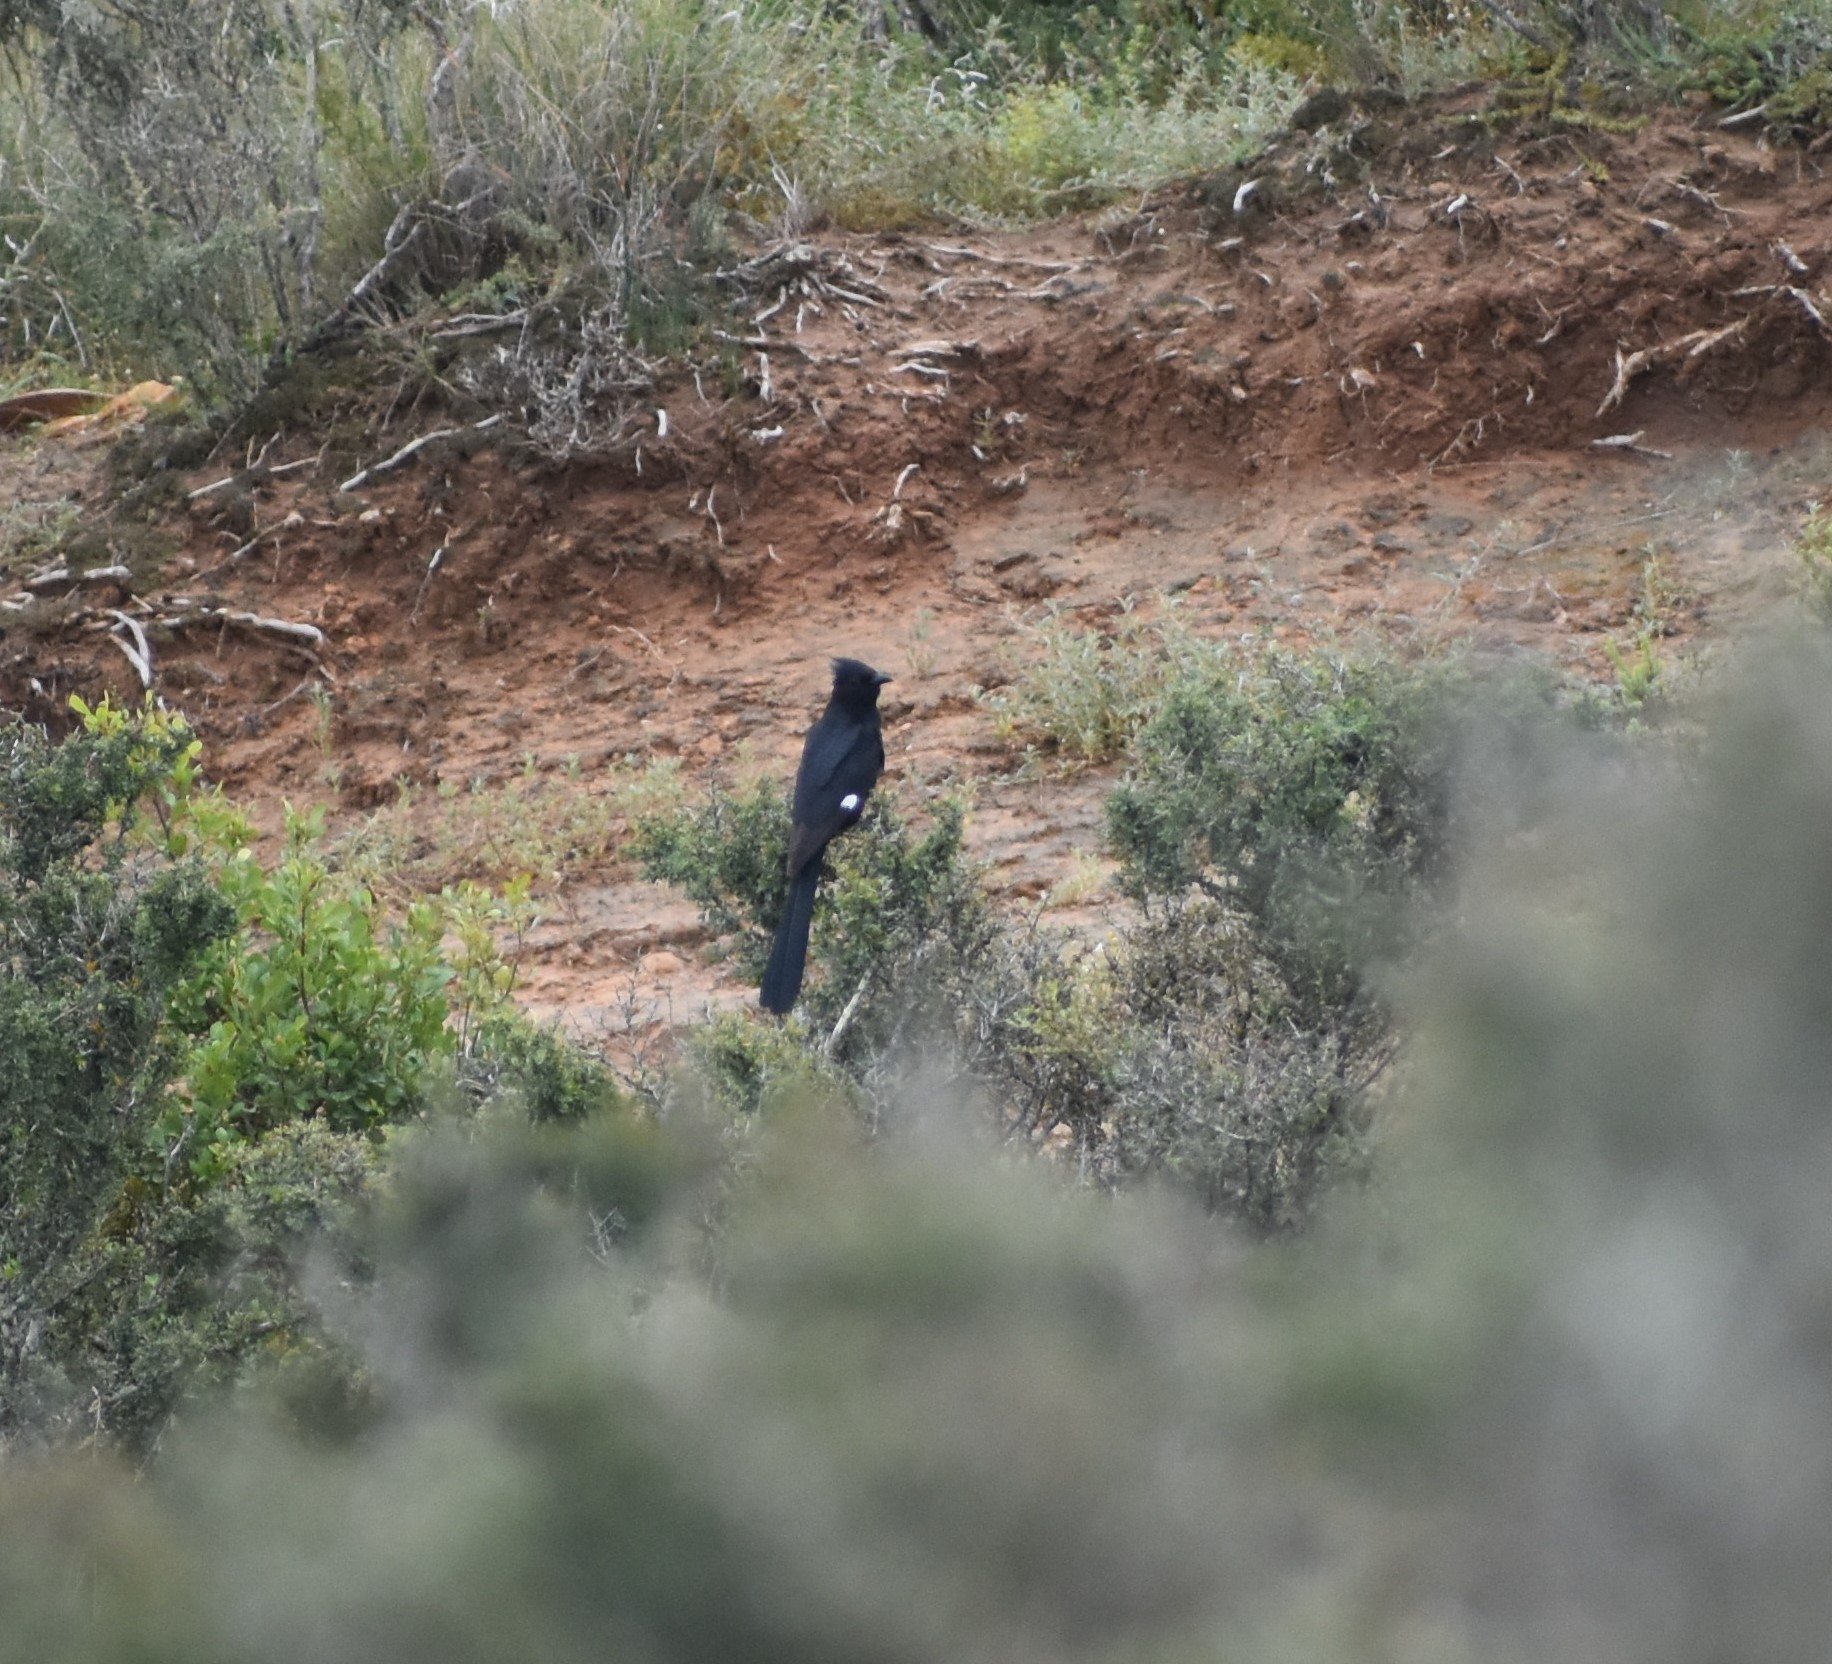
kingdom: Animalia
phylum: Chordata
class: Aves
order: Cuculiformes
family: Cuculidae
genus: Clamator
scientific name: Clamator jacobinus
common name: Jacobin cuckoo
